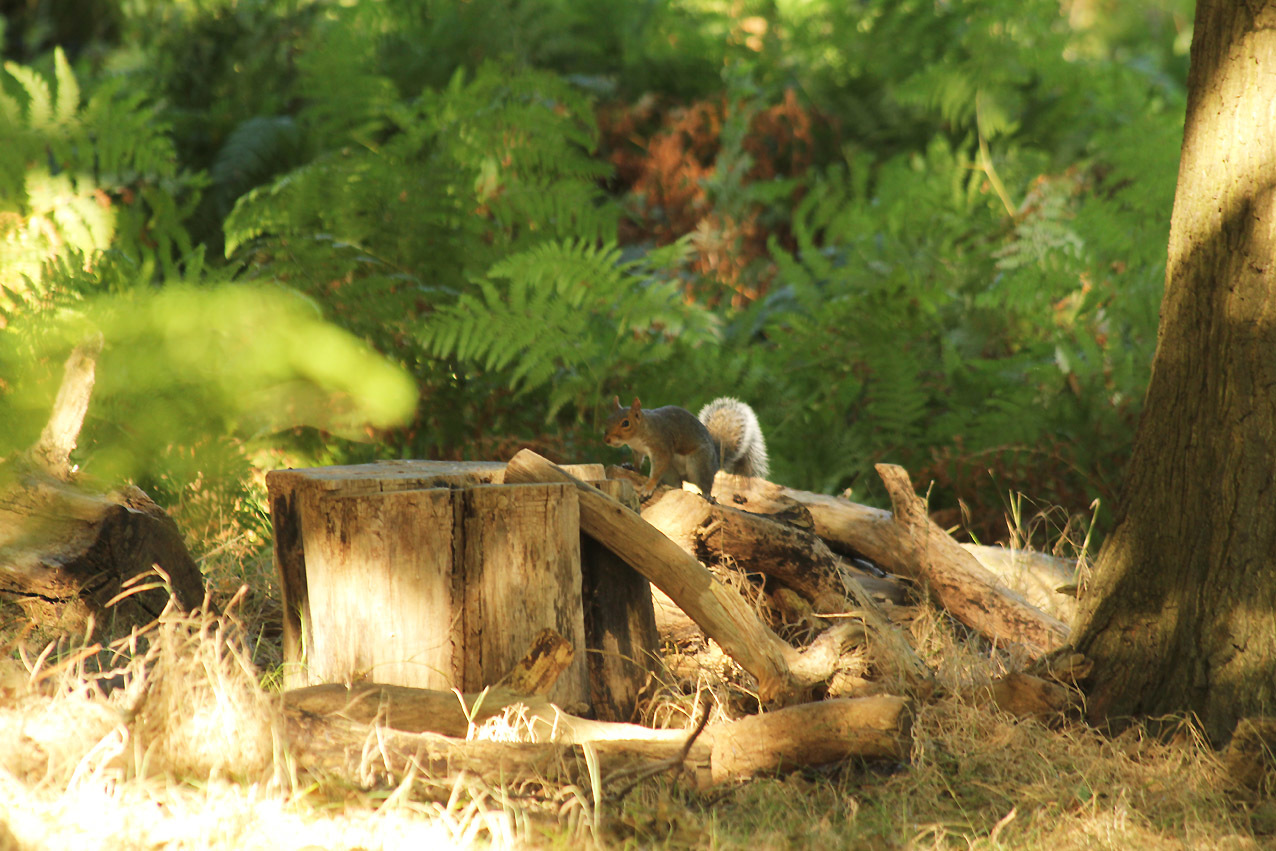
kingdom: Animalia
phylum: Chordata
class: Mammalia
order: Rodentia
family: Sciuridae
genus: Sciurus
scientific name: Sciurus carolinensis
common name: Eastern gray squirrel
